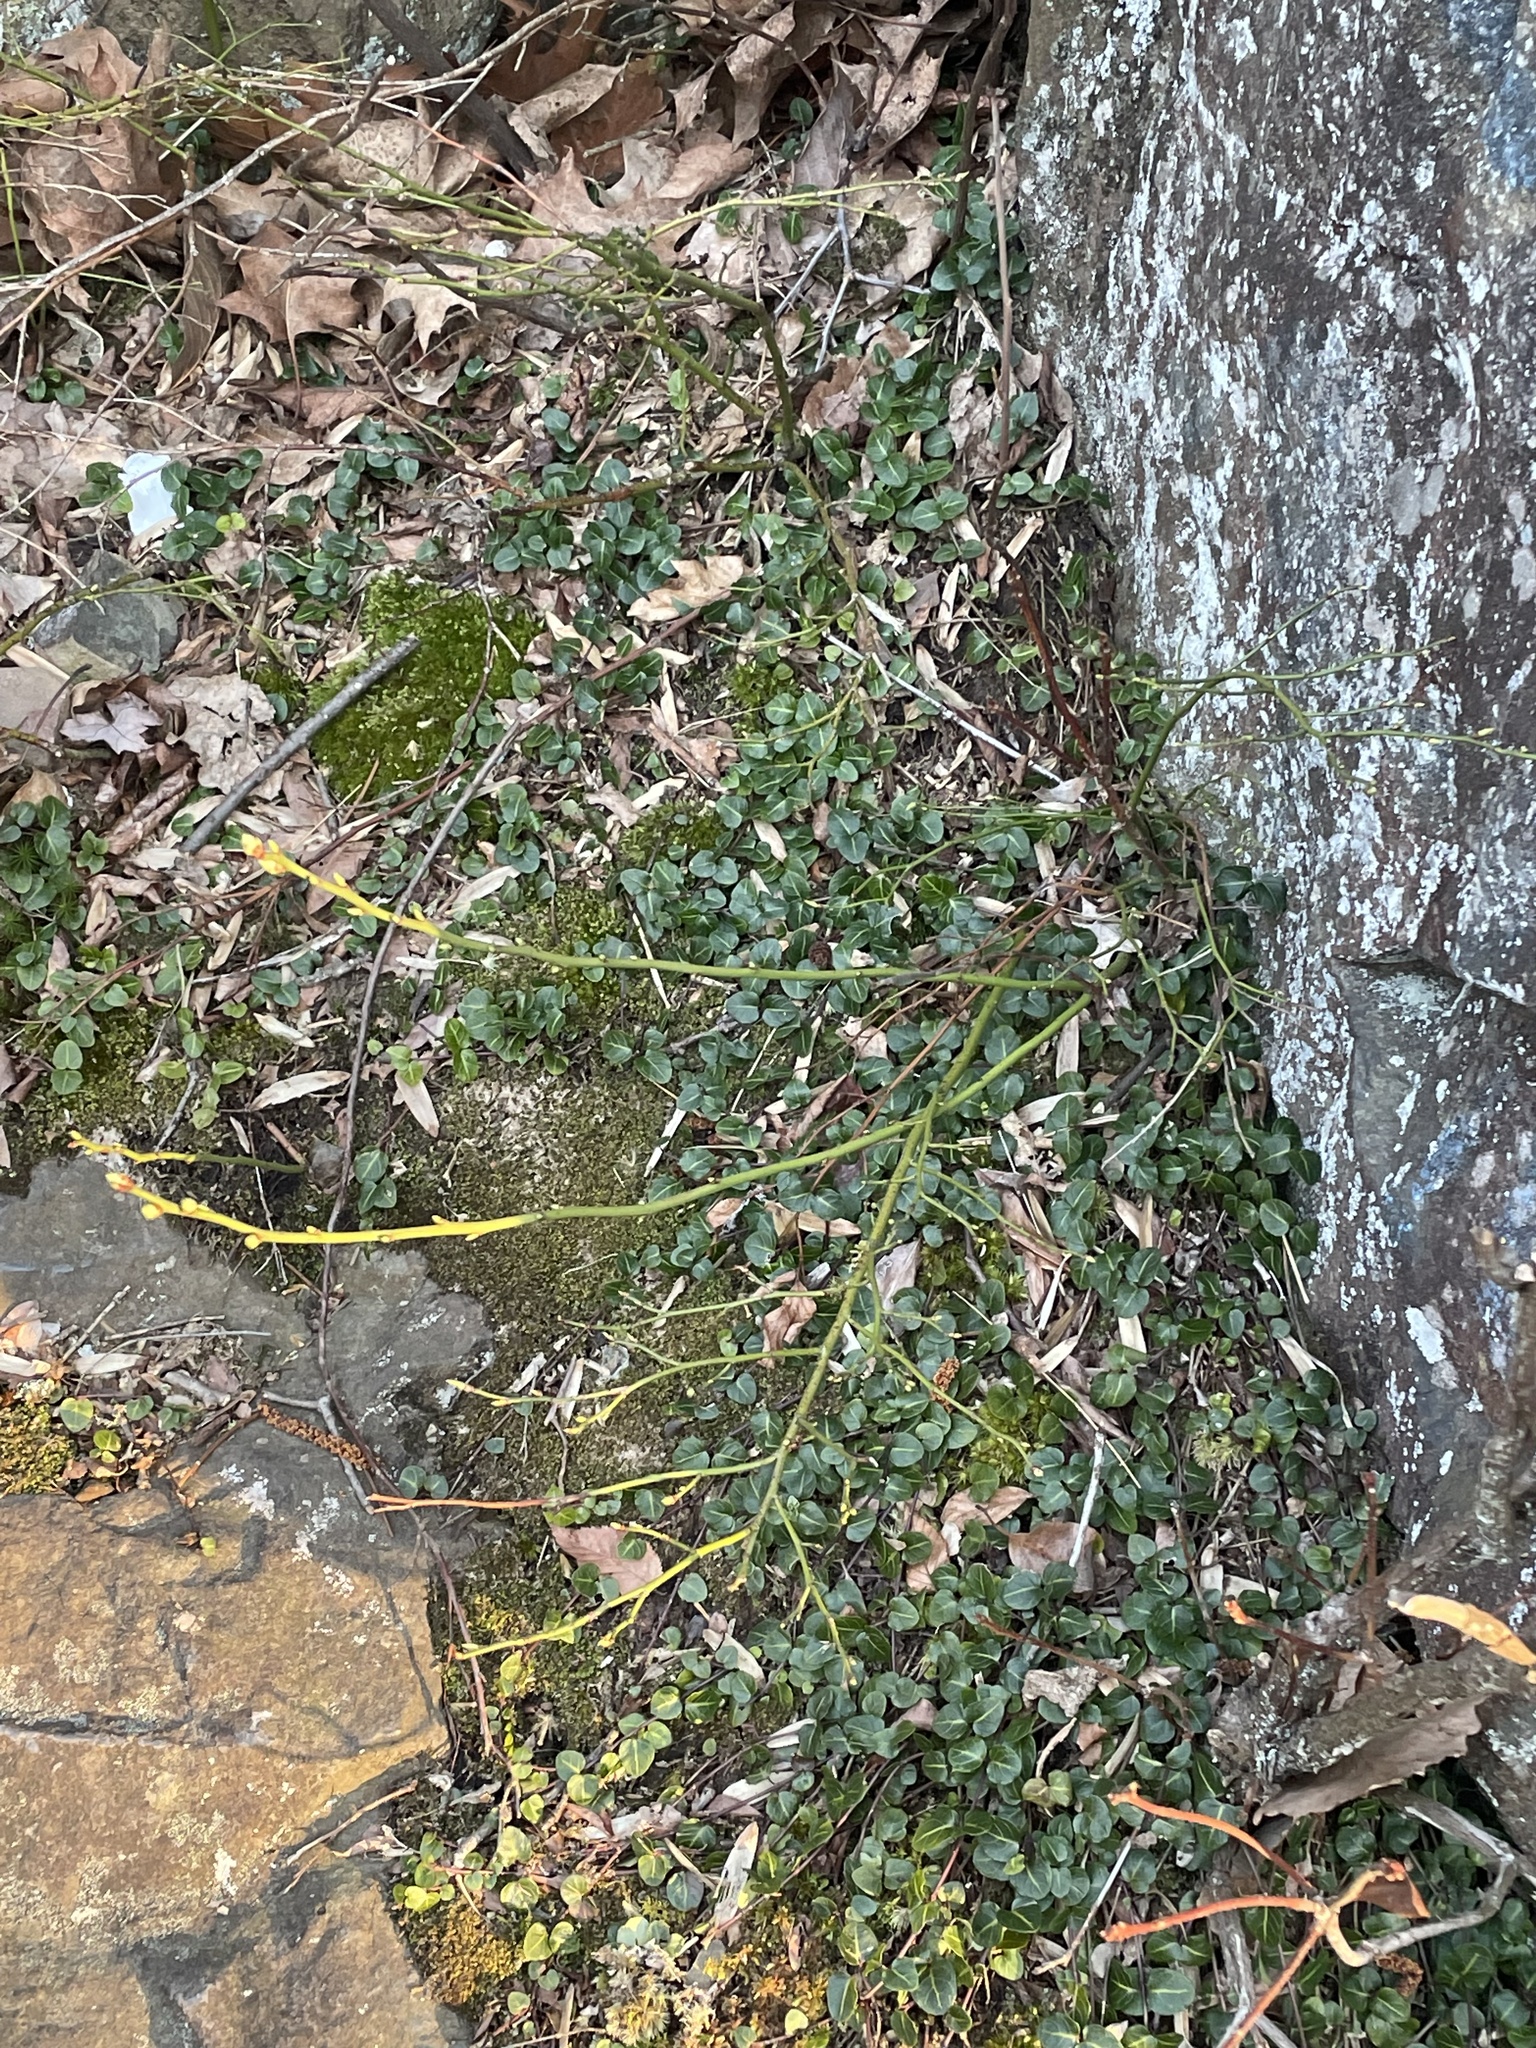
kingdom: Plantae
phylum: Tracheophyta
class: Magnoliopsida
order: Gentianales
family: Rubiaceae
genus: Mitchella
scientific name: Mitchella repens
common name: Partridge-berry
